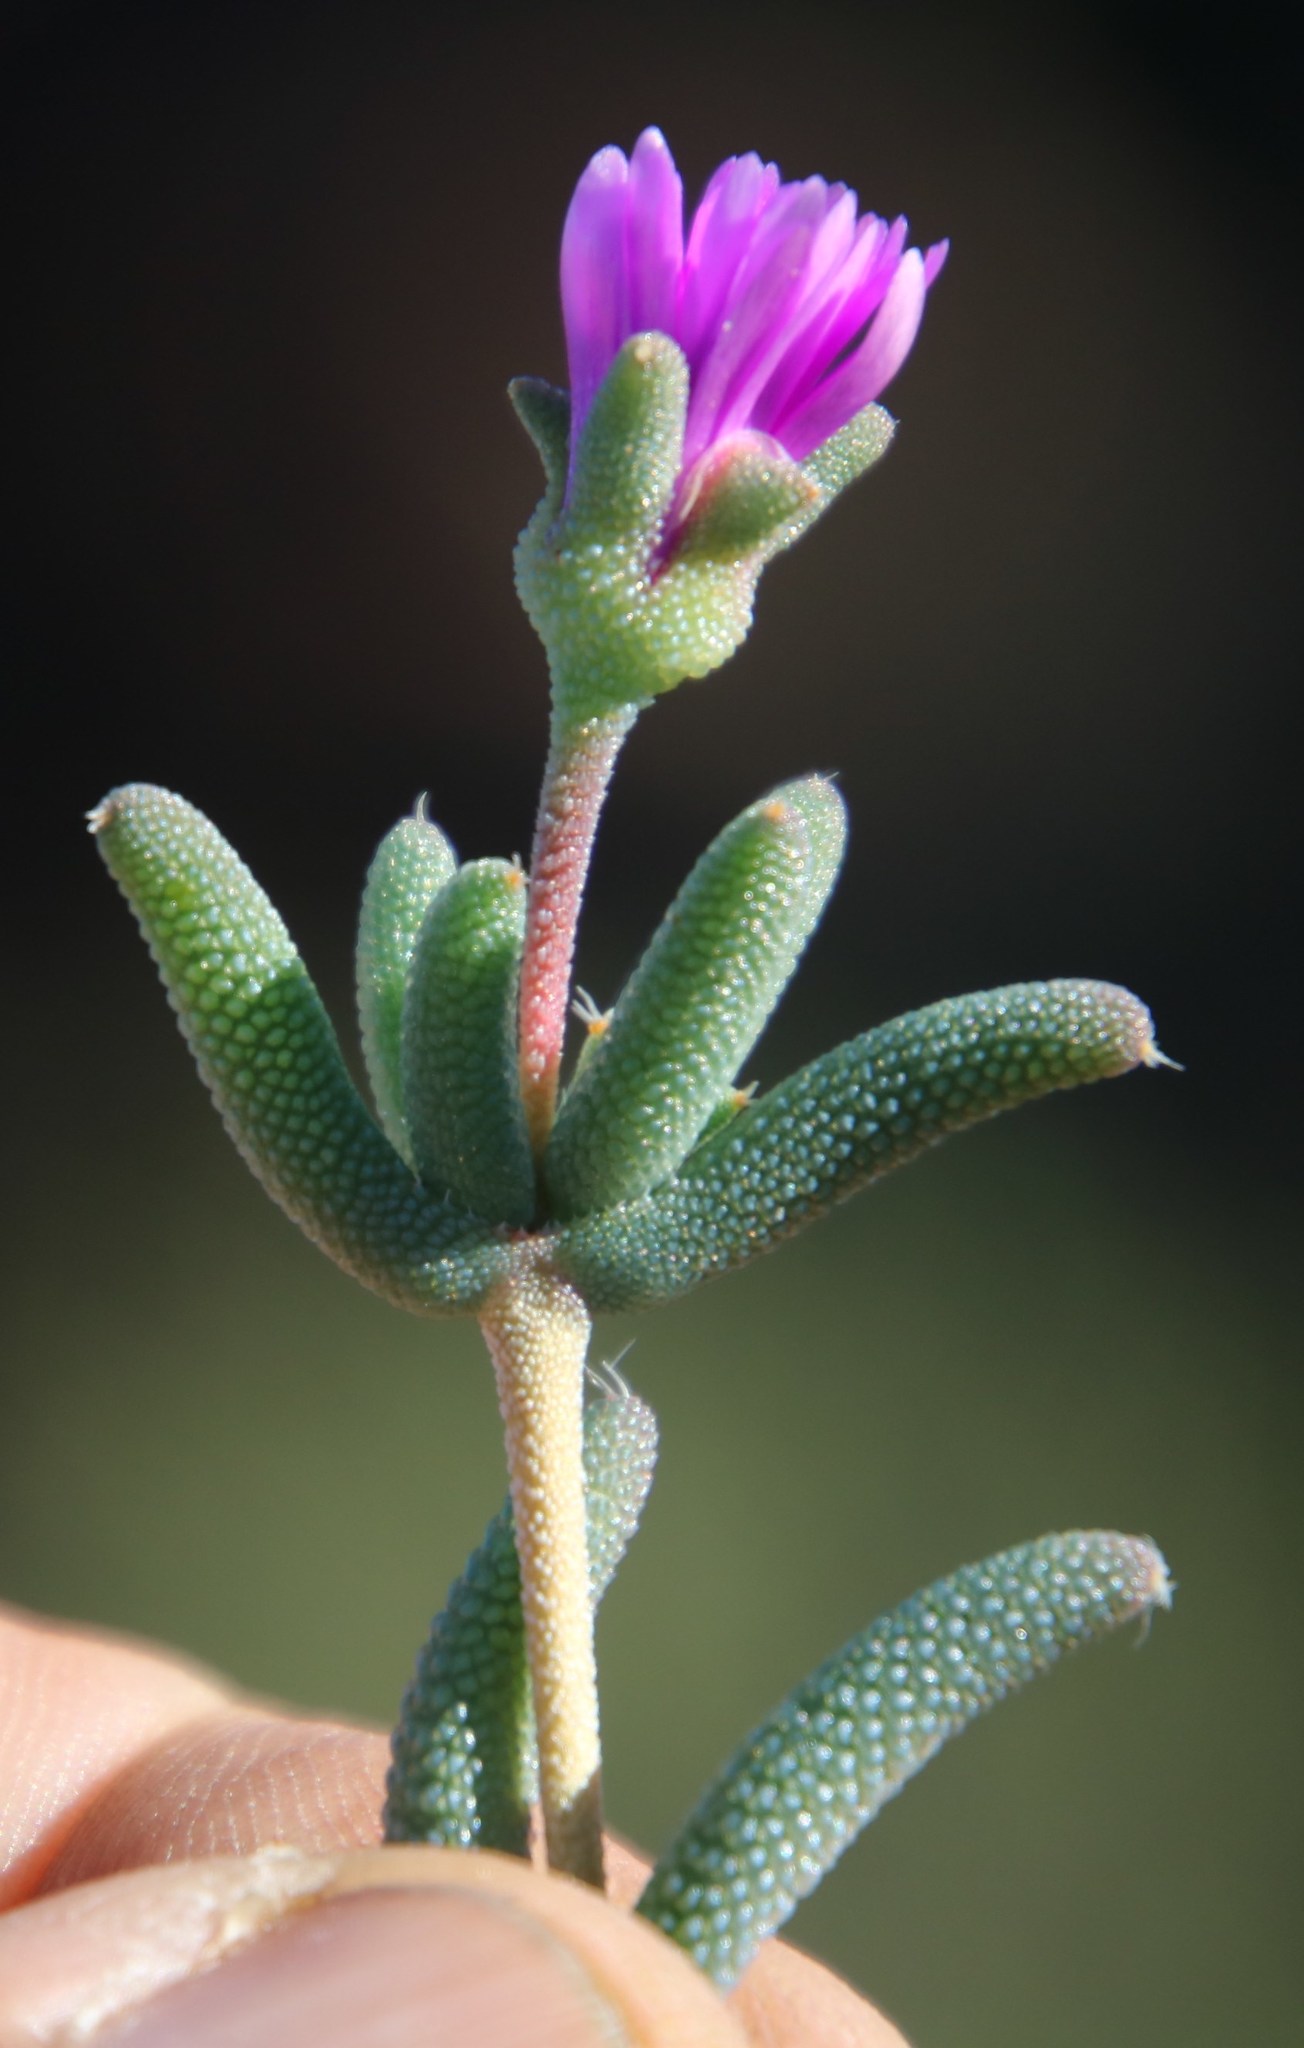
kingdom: Plantae
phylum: Tracheophyta
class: Magnoliopsida
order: Caryophyllales
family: Aizoaceae
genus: Trichodiadema
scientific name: Trichodiadema pomeridianum
